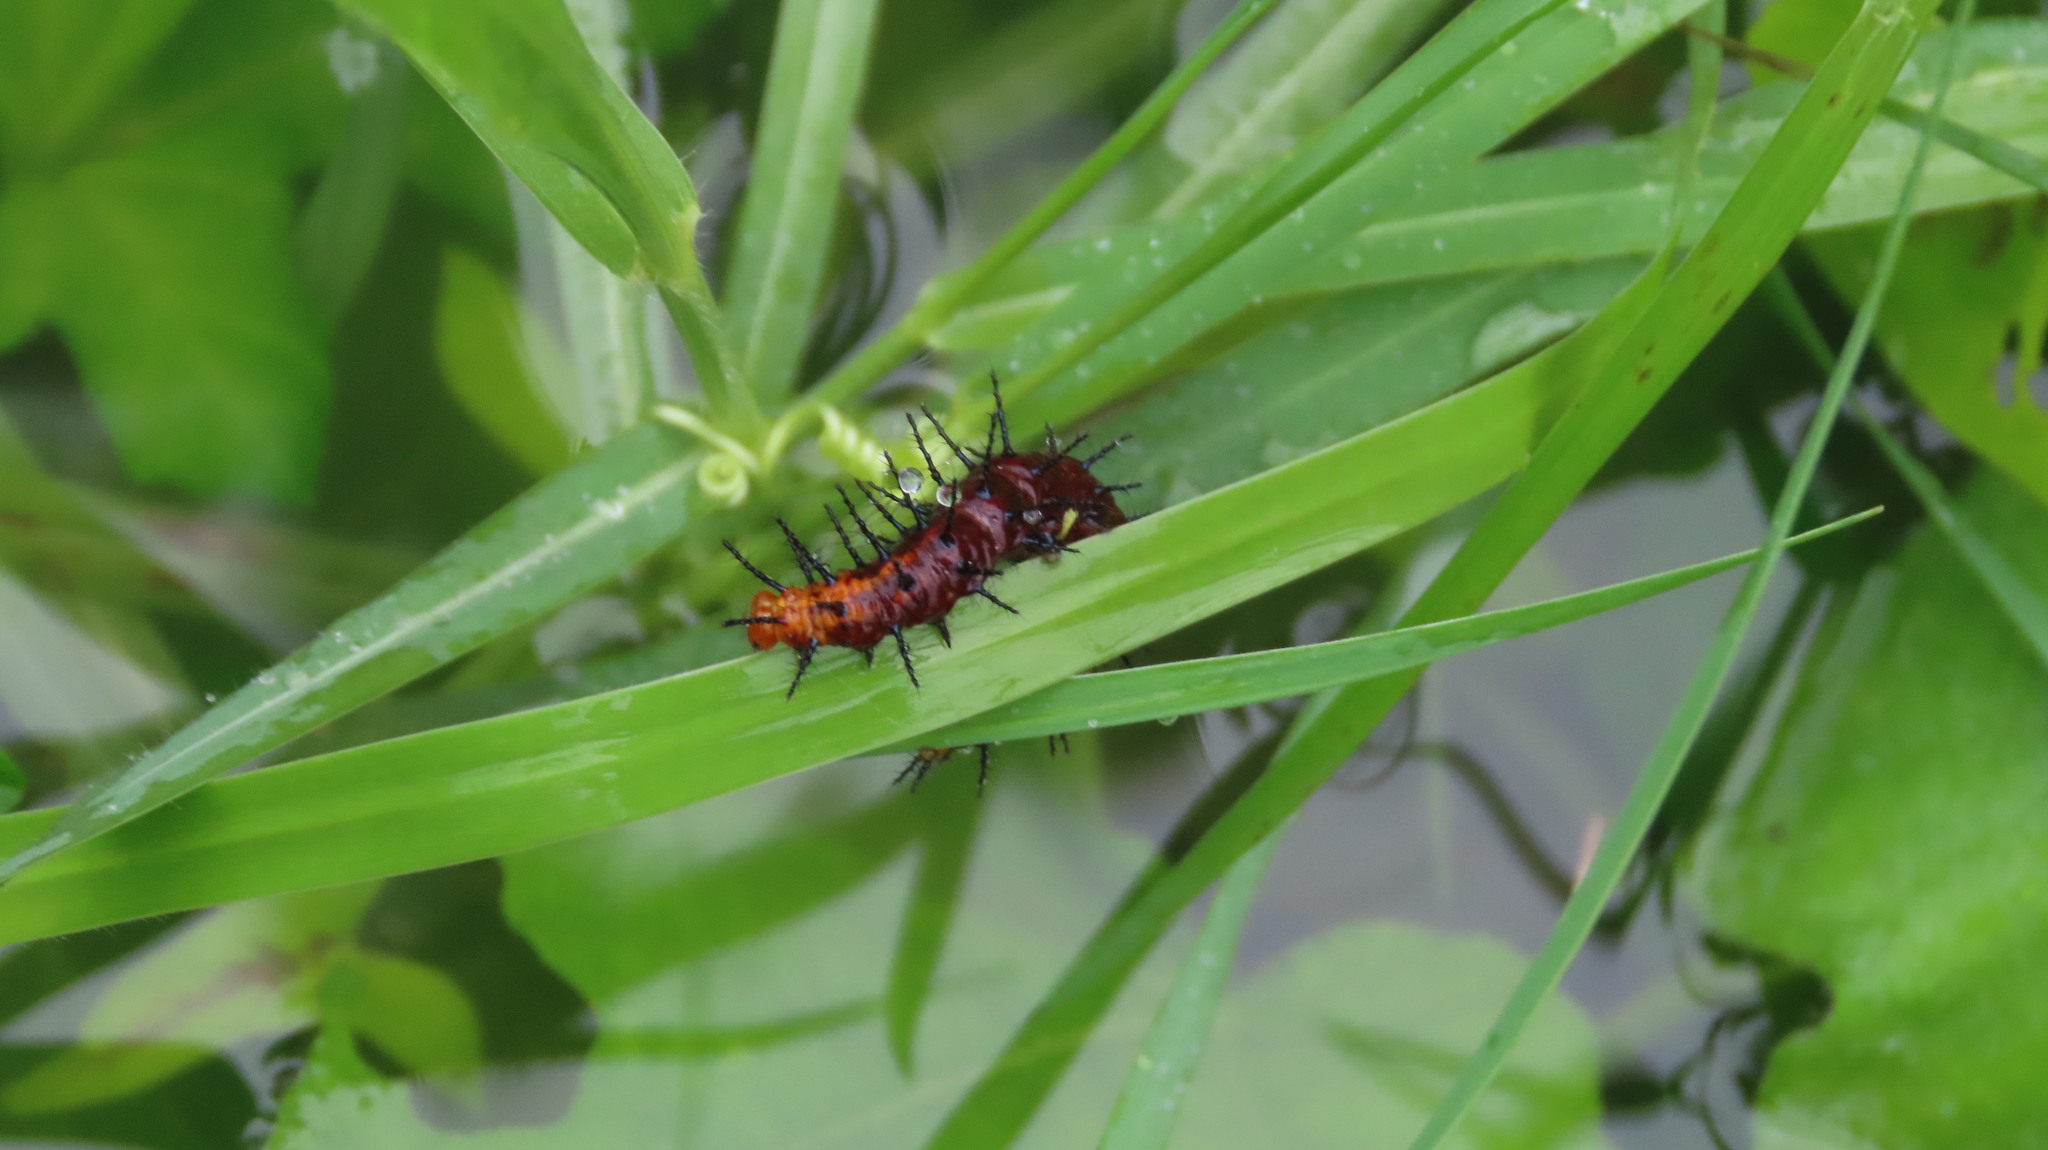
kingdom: Animalia
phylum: Arthropoda
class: Insecta
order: Lepidoptera
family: Nymphalidae
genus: Acraea
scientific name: Acraea terpsicore
